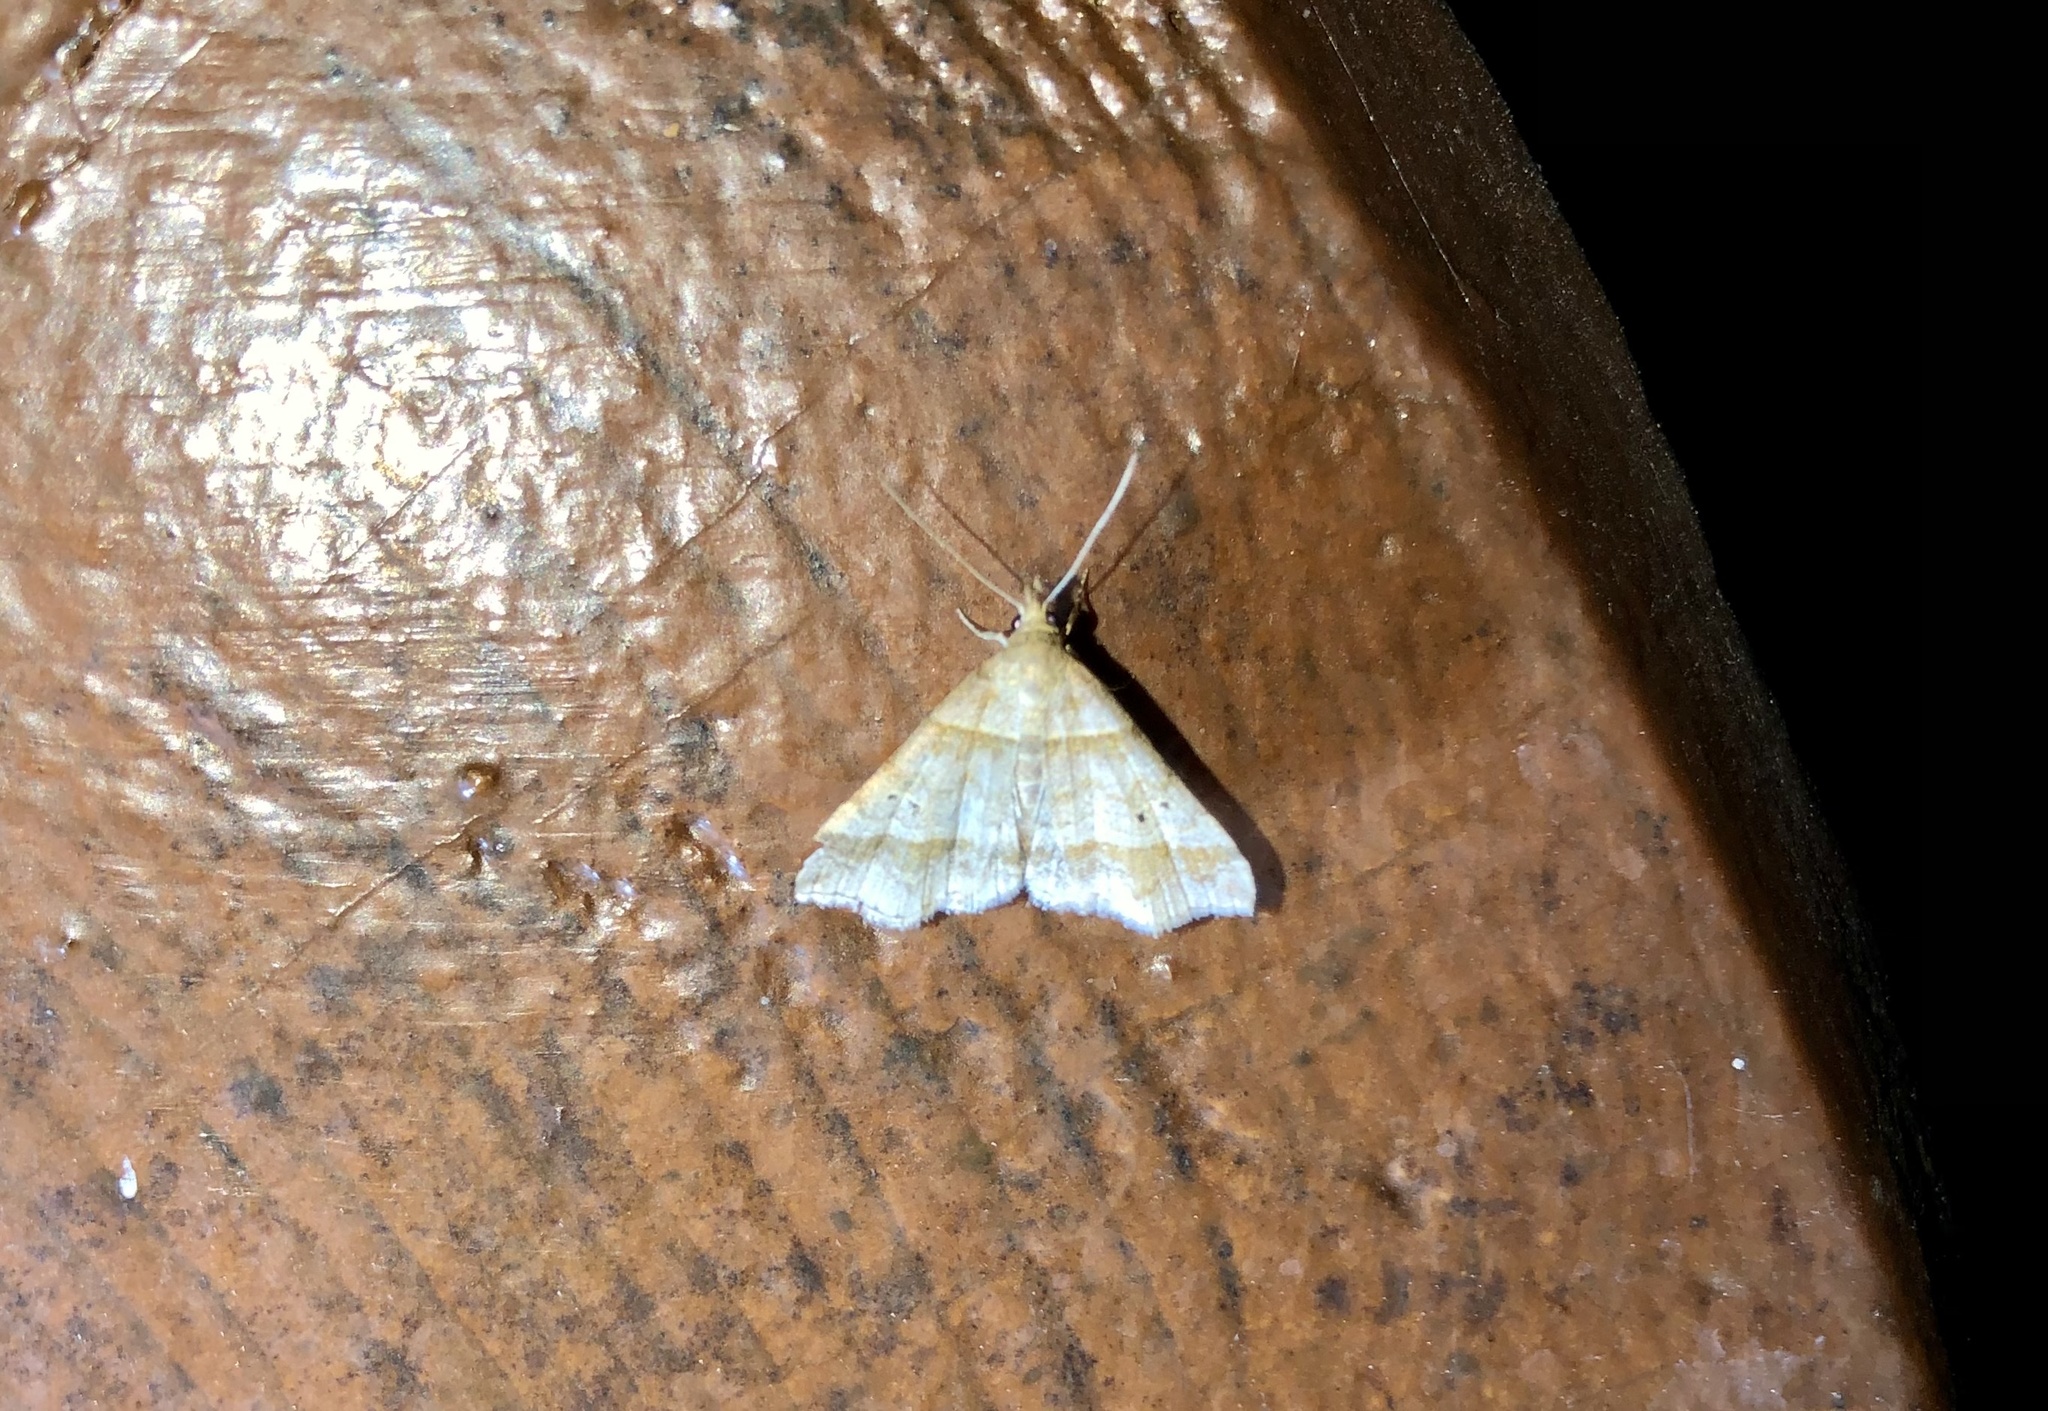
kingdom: Animalia
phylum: Arthropoda
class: Insecta
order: Lepidoptera
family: Erebidae
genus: Phaeolita
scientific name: Phaeolita pyramusalis
